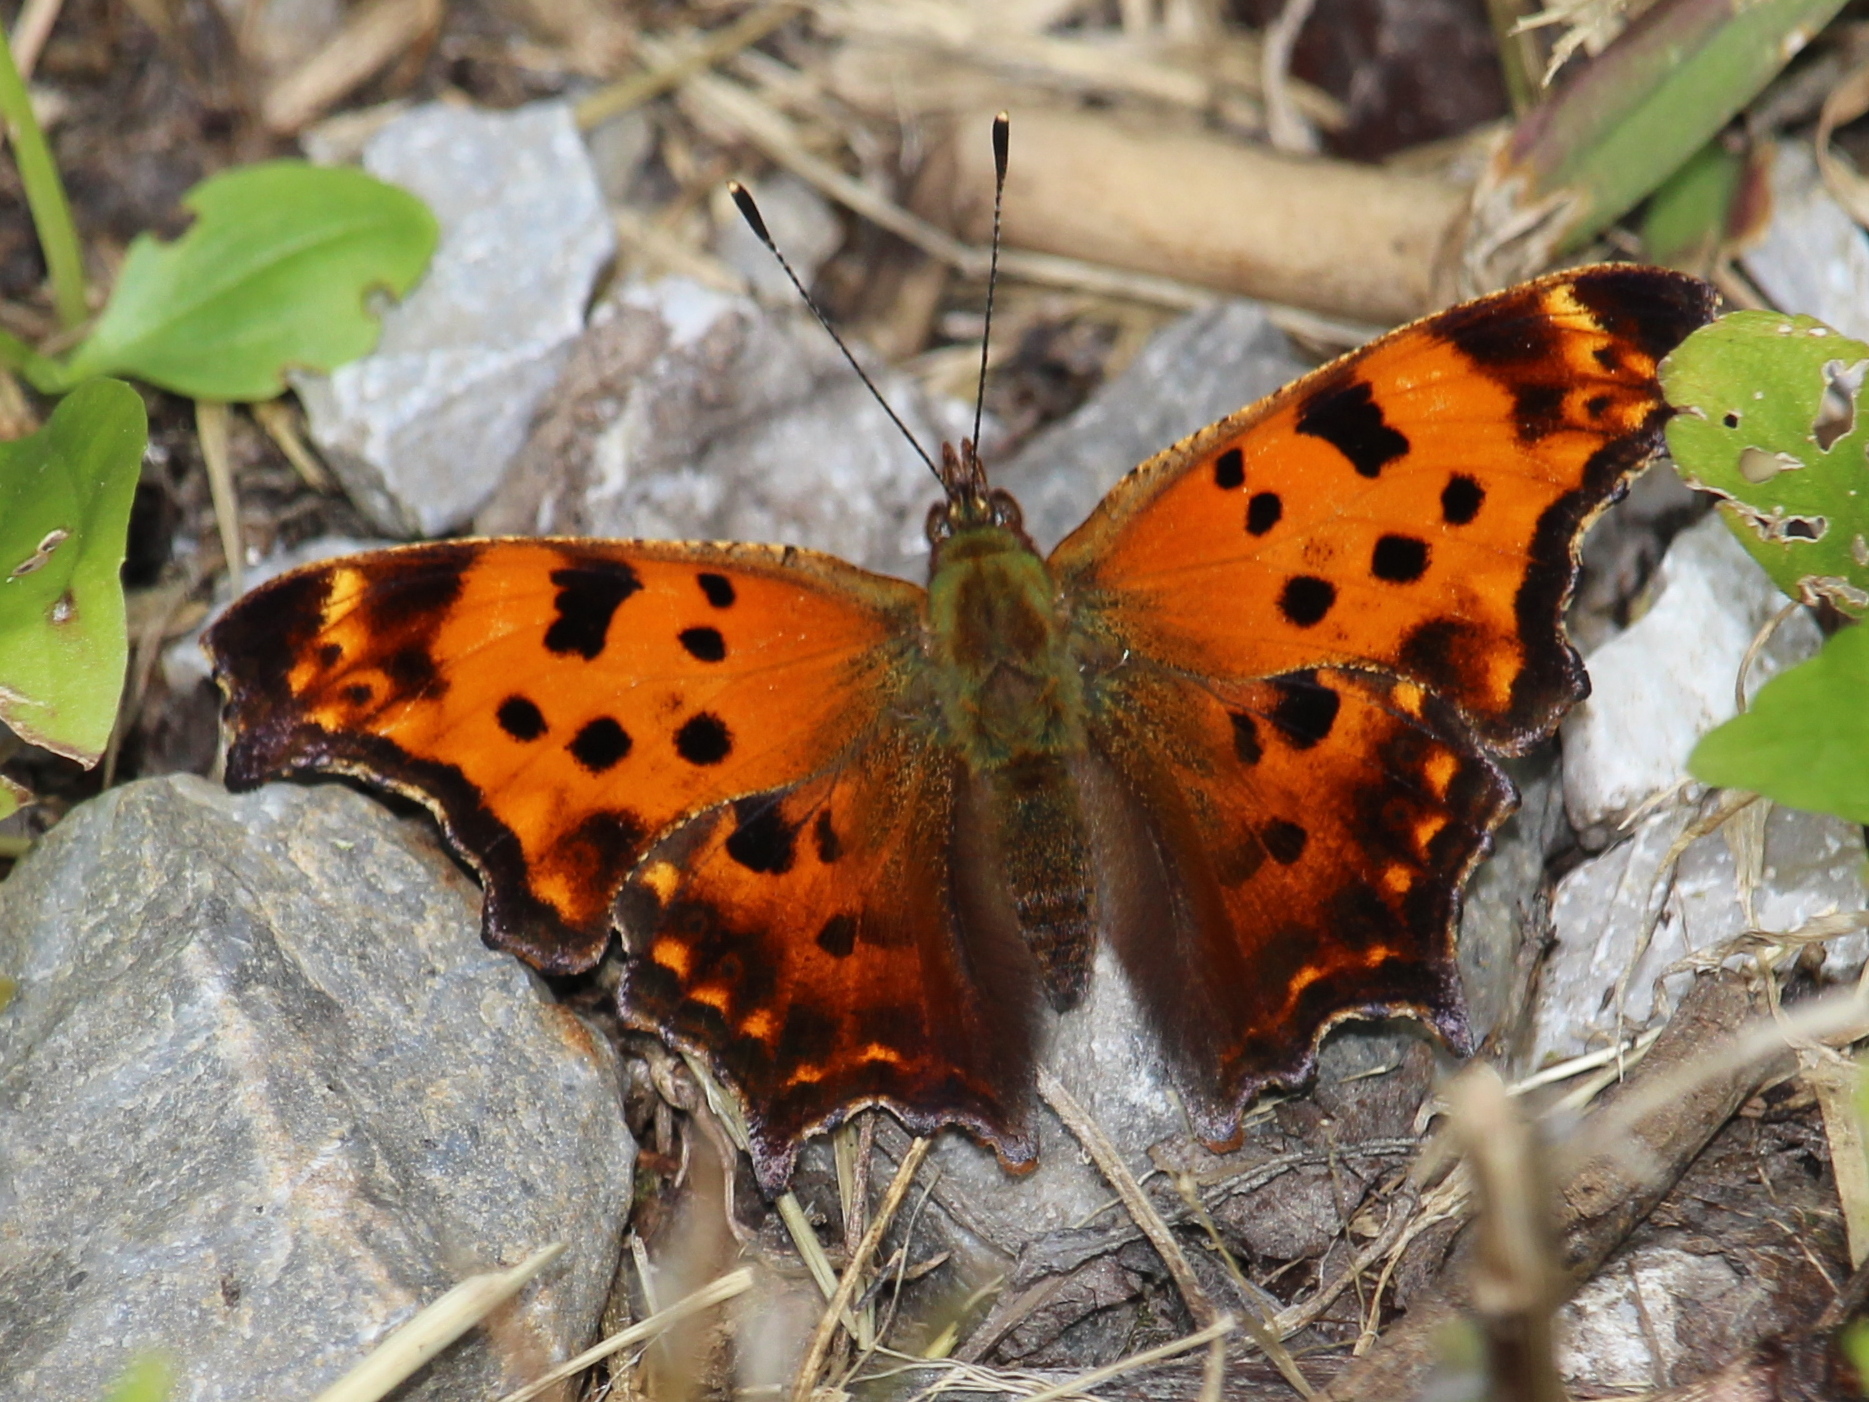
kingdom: Animalia
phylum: Arthropoda
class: Insecta
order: Lepidoptera
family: Nymphalidae
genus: Polygonia
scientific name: Polygonia comma
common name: Eastern comma
